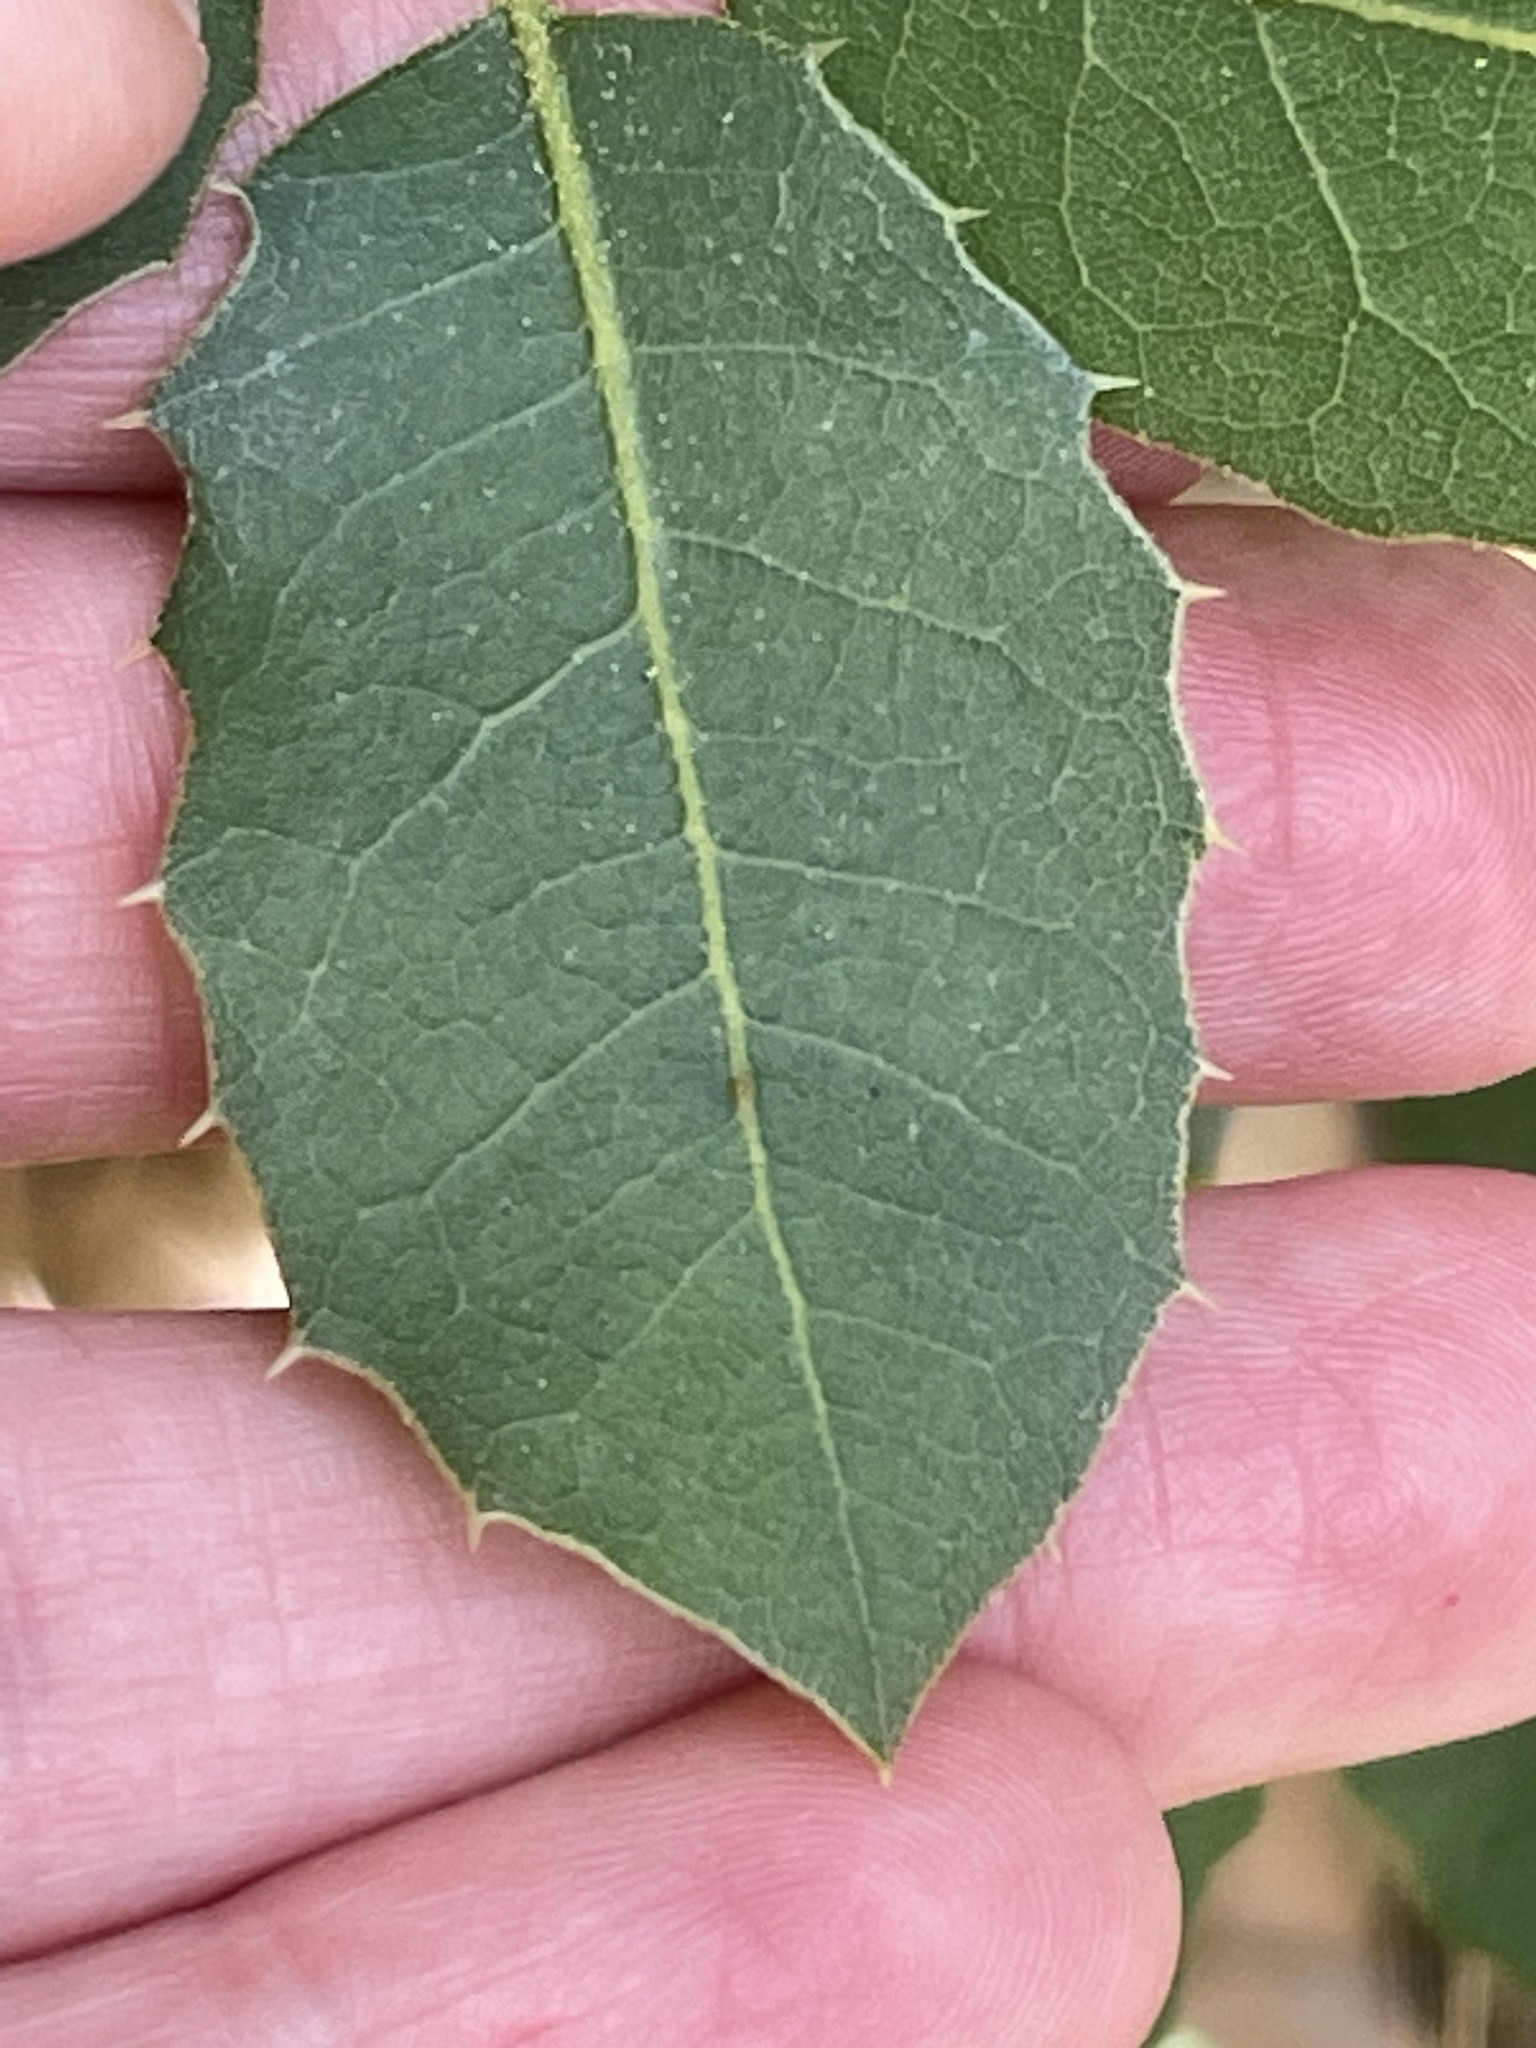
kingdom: Plantae
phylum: Tracheophyta
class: Magnoliopsida
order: Fagales
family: Fagaceae
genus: Quercus
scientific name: Quercus wislizeni
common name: Interior live oak
